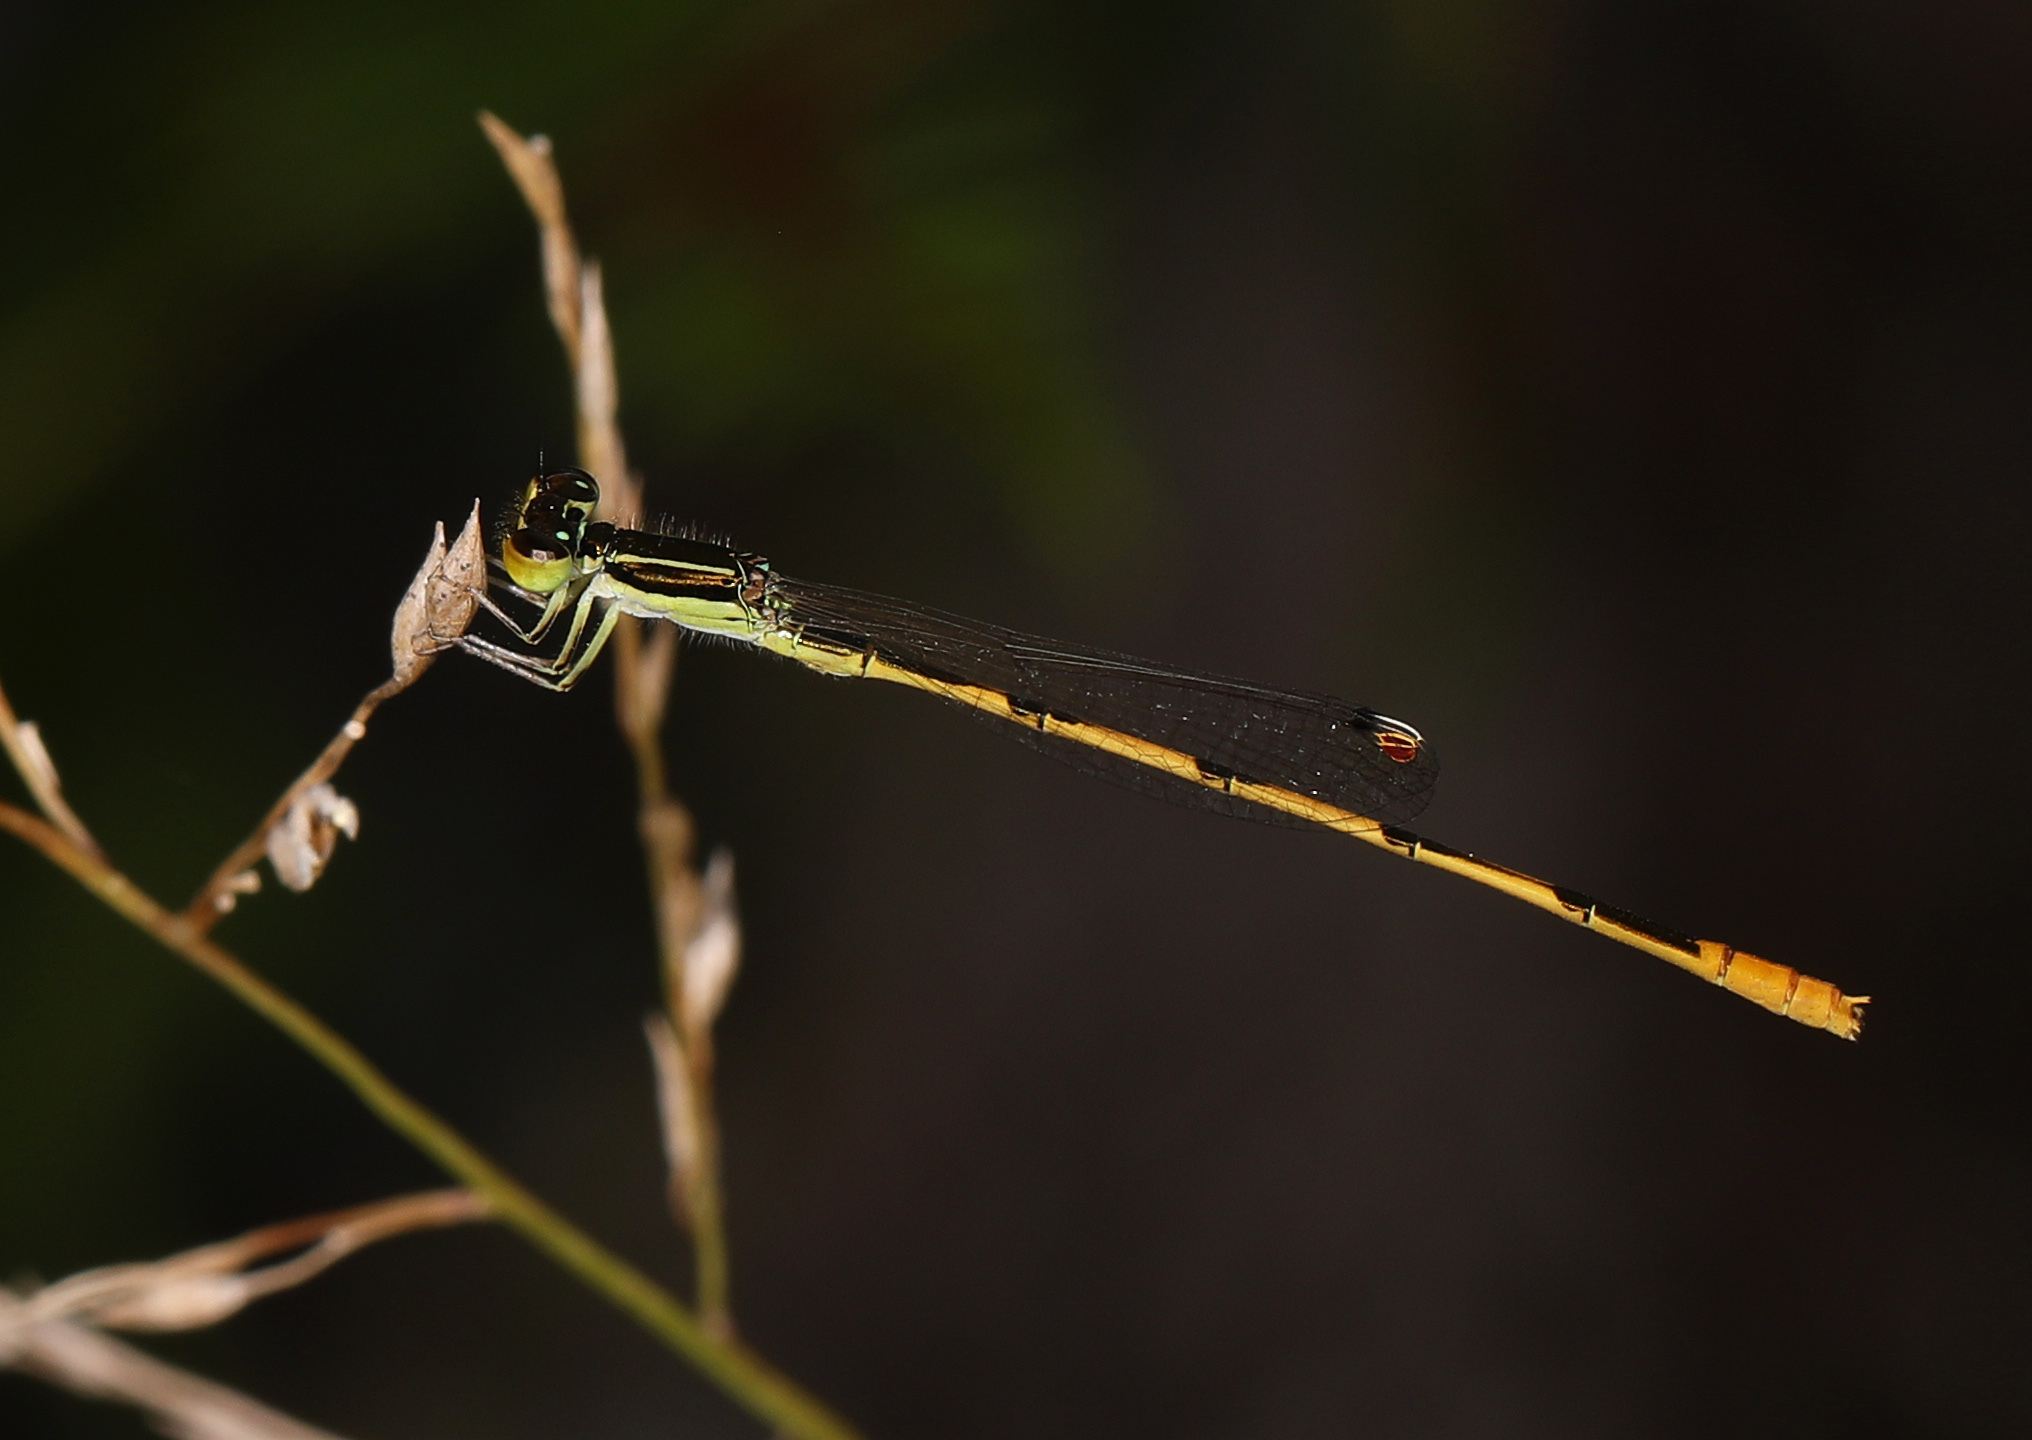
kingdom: Animalia
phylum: Arthropoda
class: Insecta
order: Odonata
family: Coenagrionidae
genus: Ischnura
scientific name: Ischnura hastata
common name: Citrine forktail
